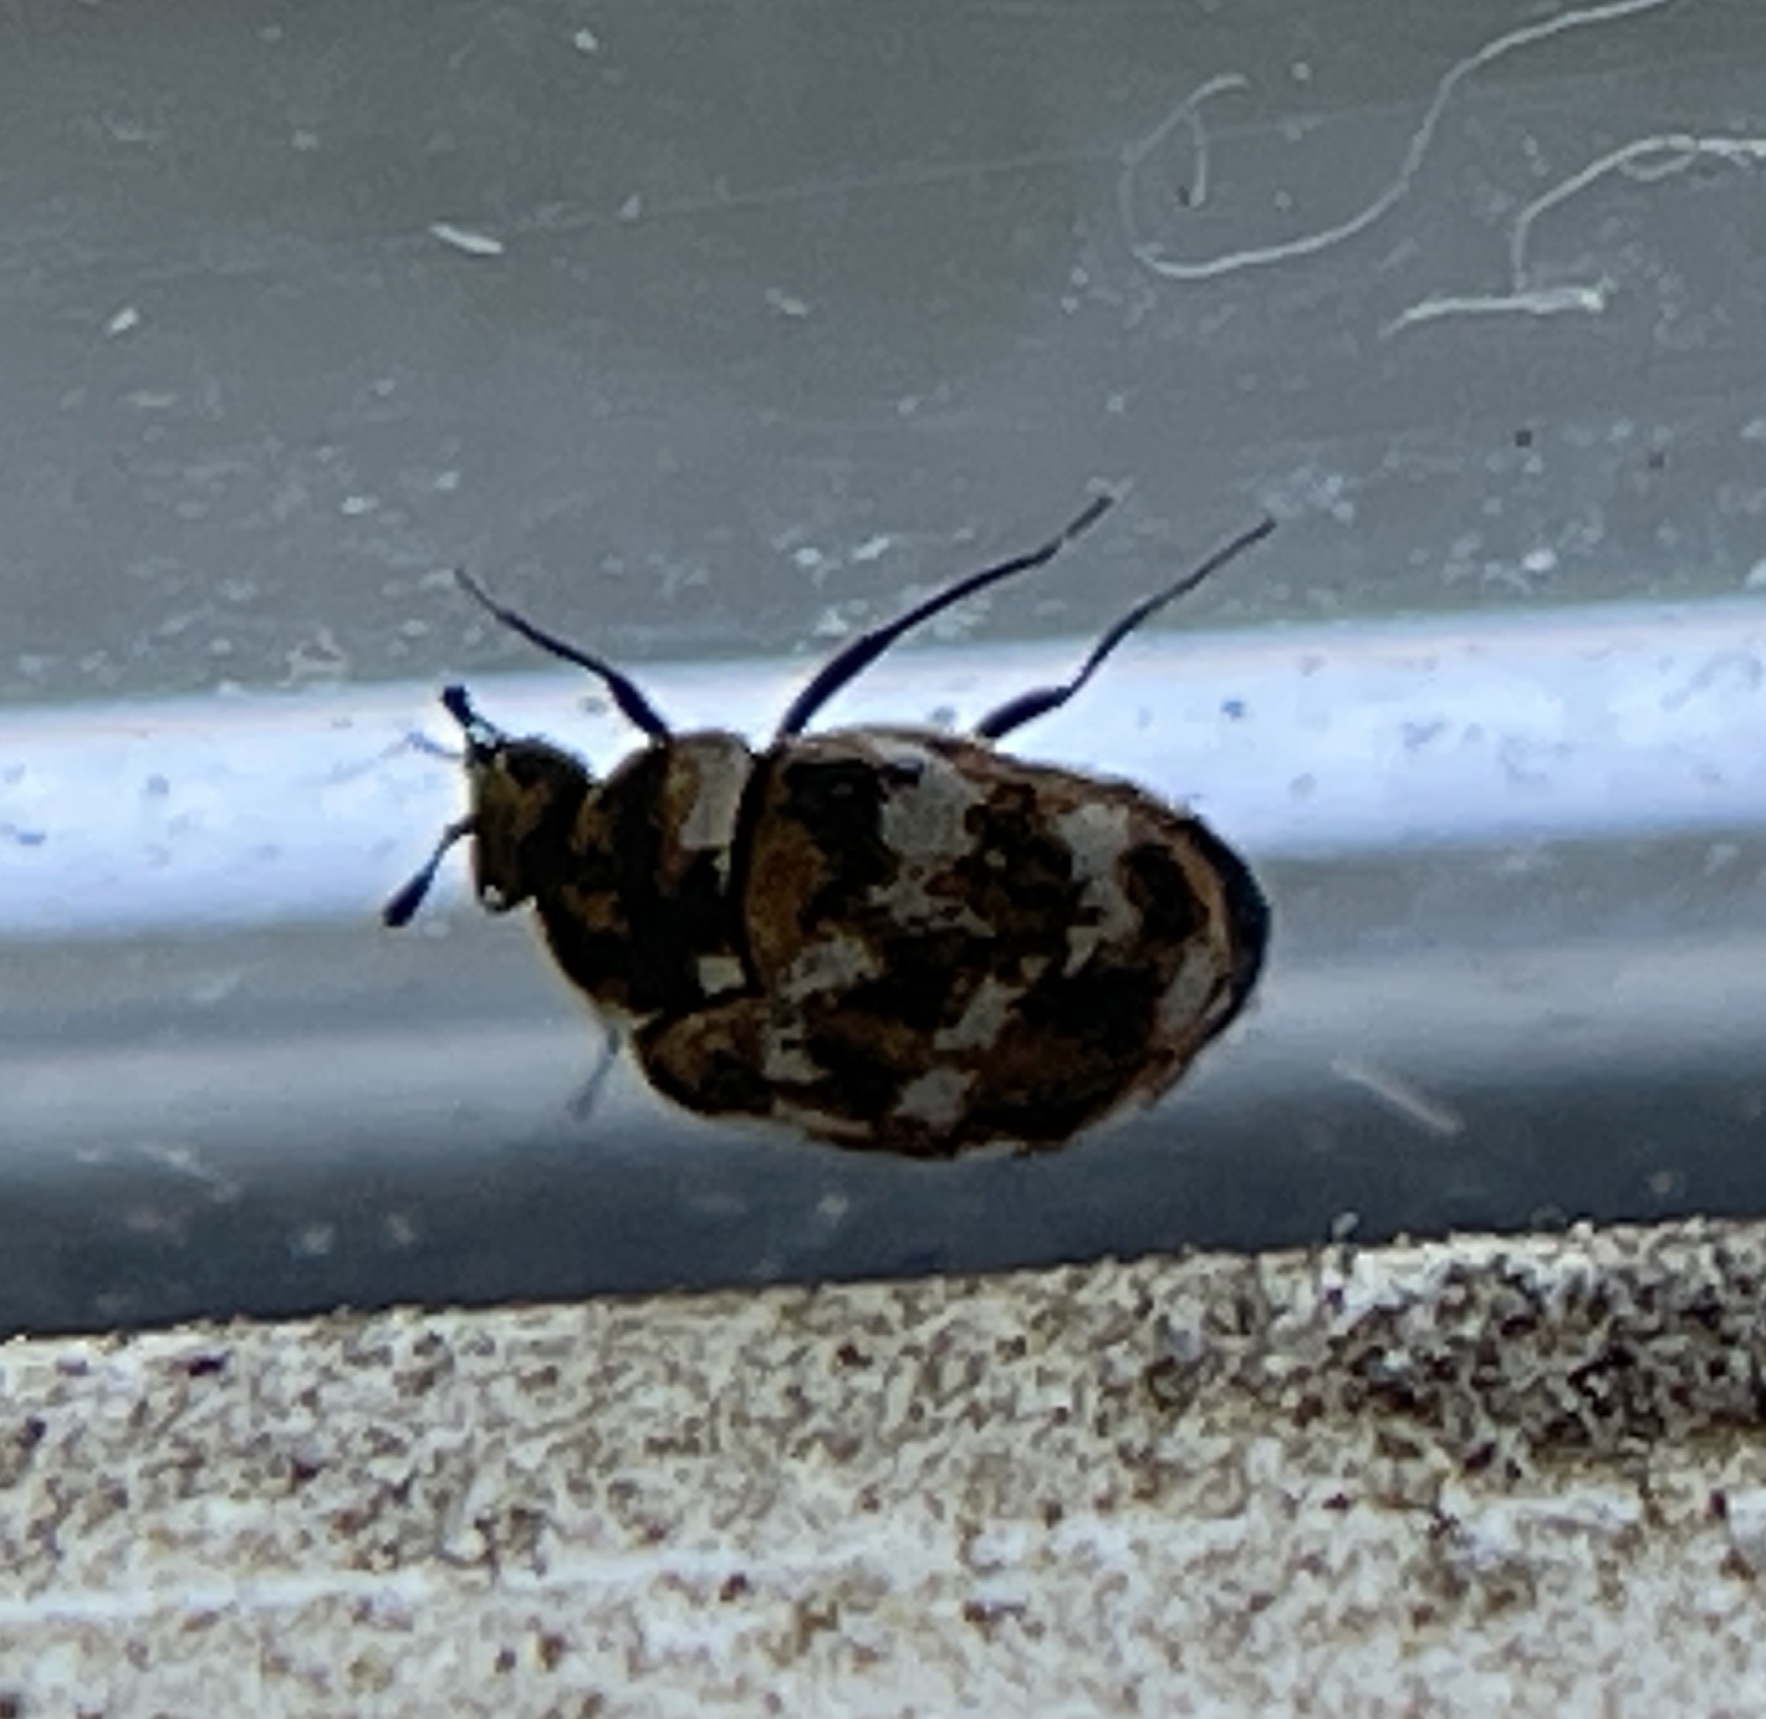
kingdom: Animalia
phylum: Arthropoda
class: Insecta
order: Coleoptera
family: Dermestidae
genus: Anthrenus
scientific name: Anthrenus verbasci
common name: Varied carpet beetle
